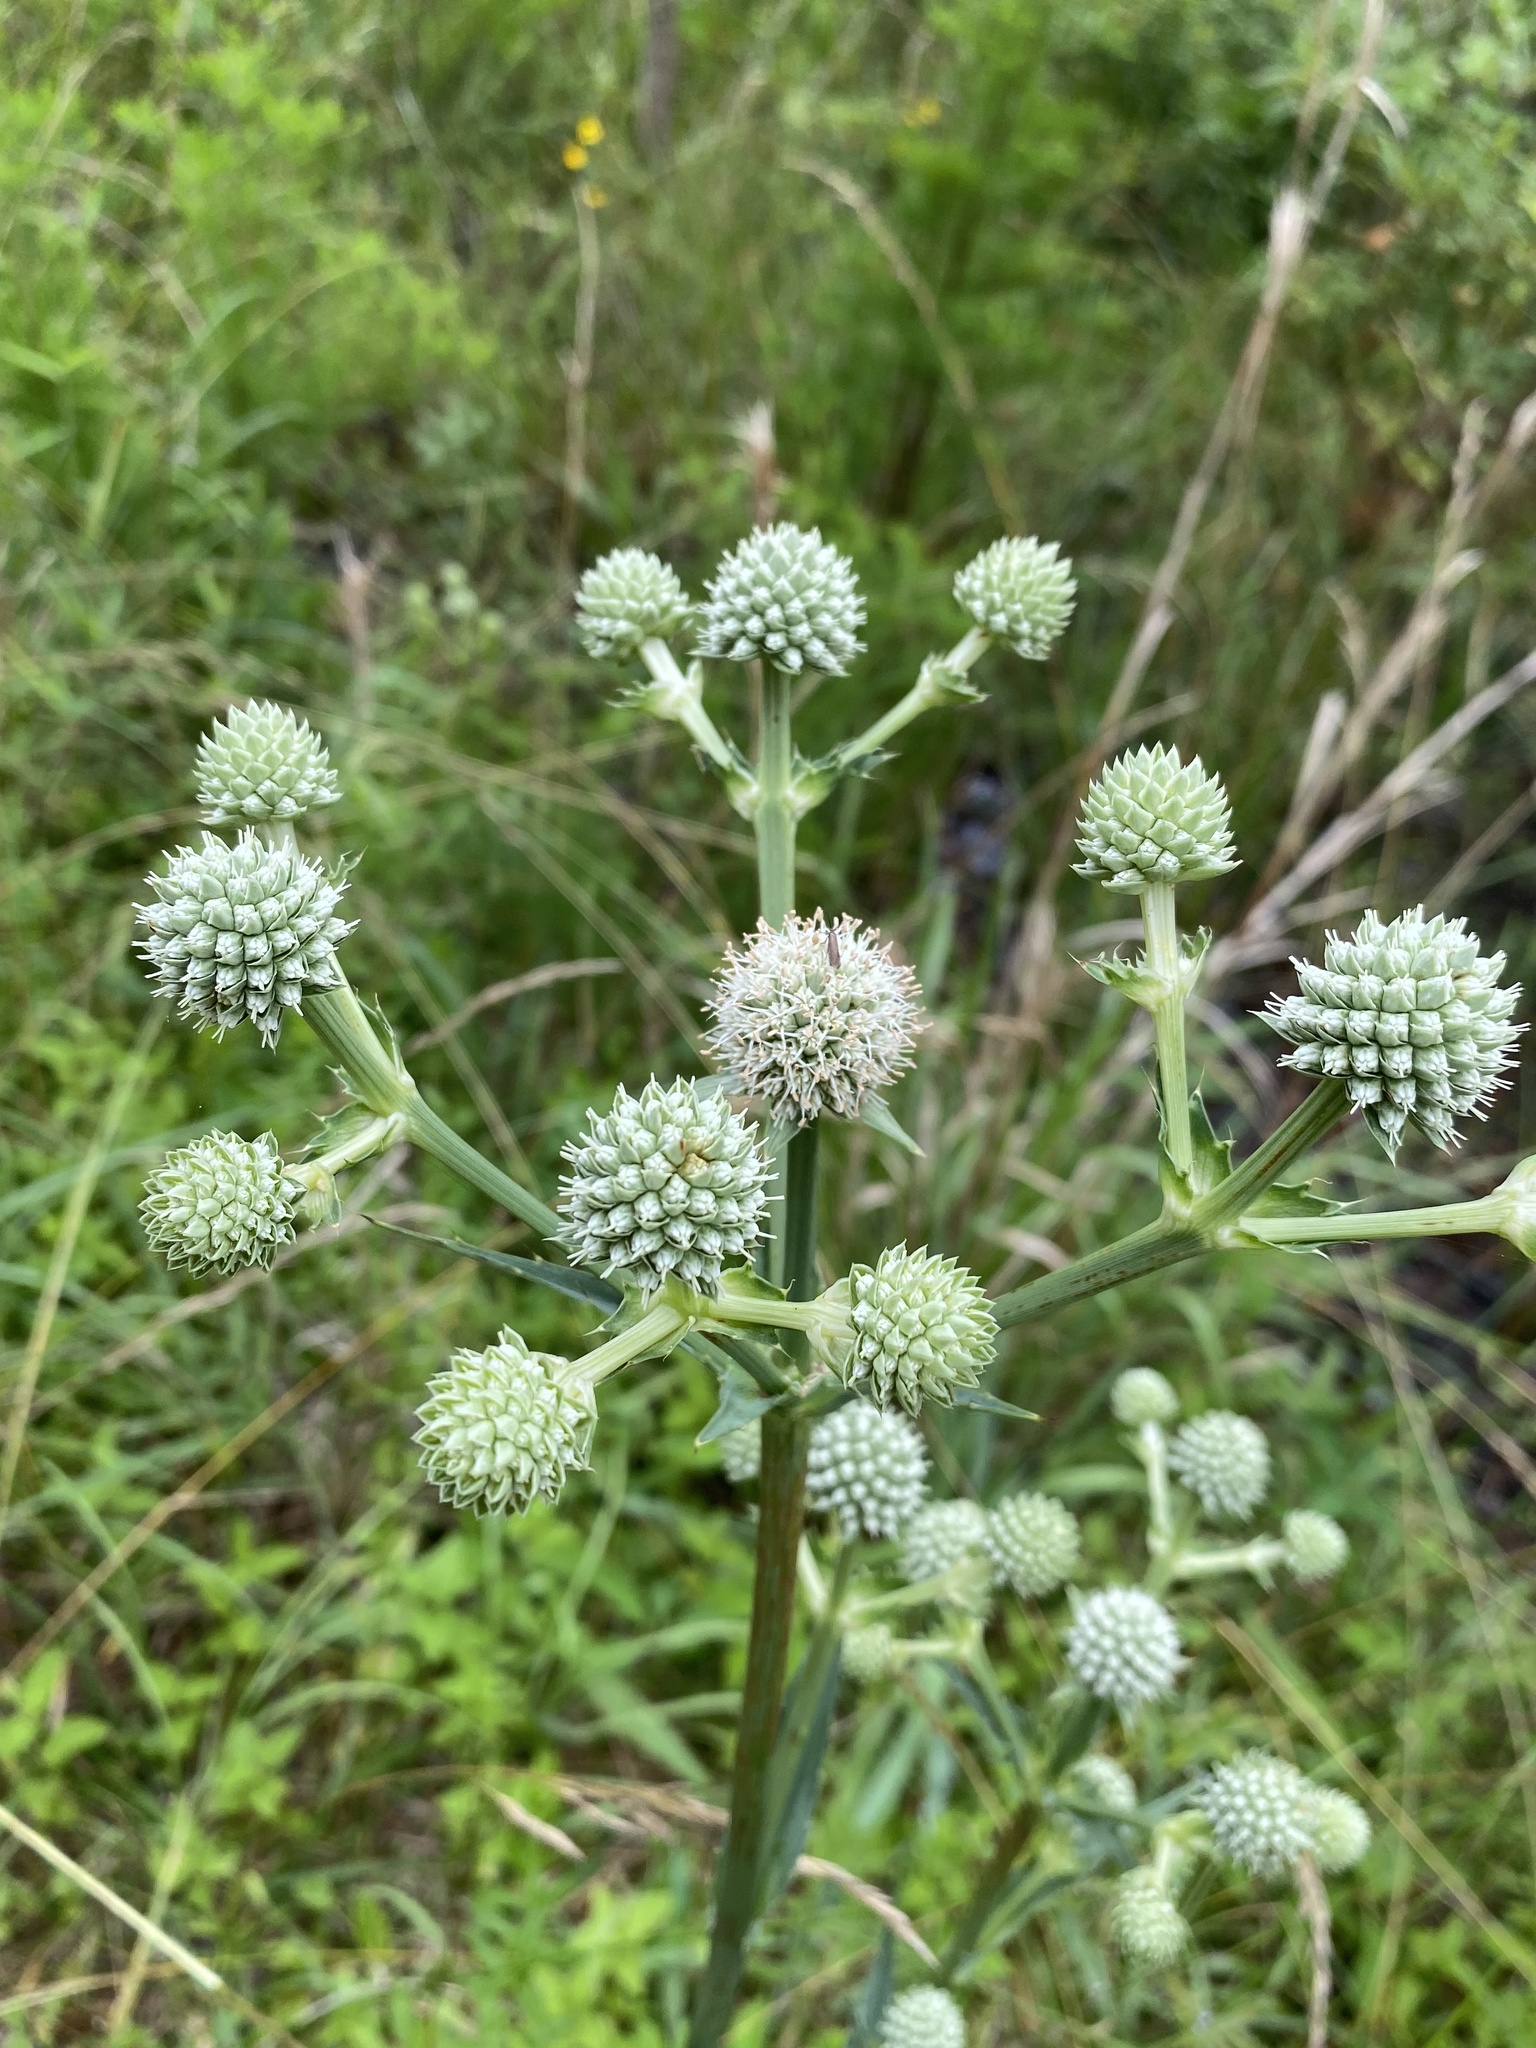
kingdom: Plantae
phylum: Tracheophyta
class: Magnoliopsida
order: Apiales
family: Apiaceae
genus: Eryngium
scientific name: Eryngium yuccifolium
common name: Button eryngo
